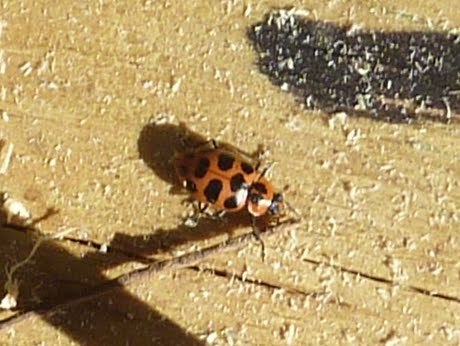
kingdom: Animalia
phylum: Arthropoda
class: Insecta
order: Coleoptera
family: Coccinellidae
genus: Coleomegilla
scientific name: Coleomegilla maculata
